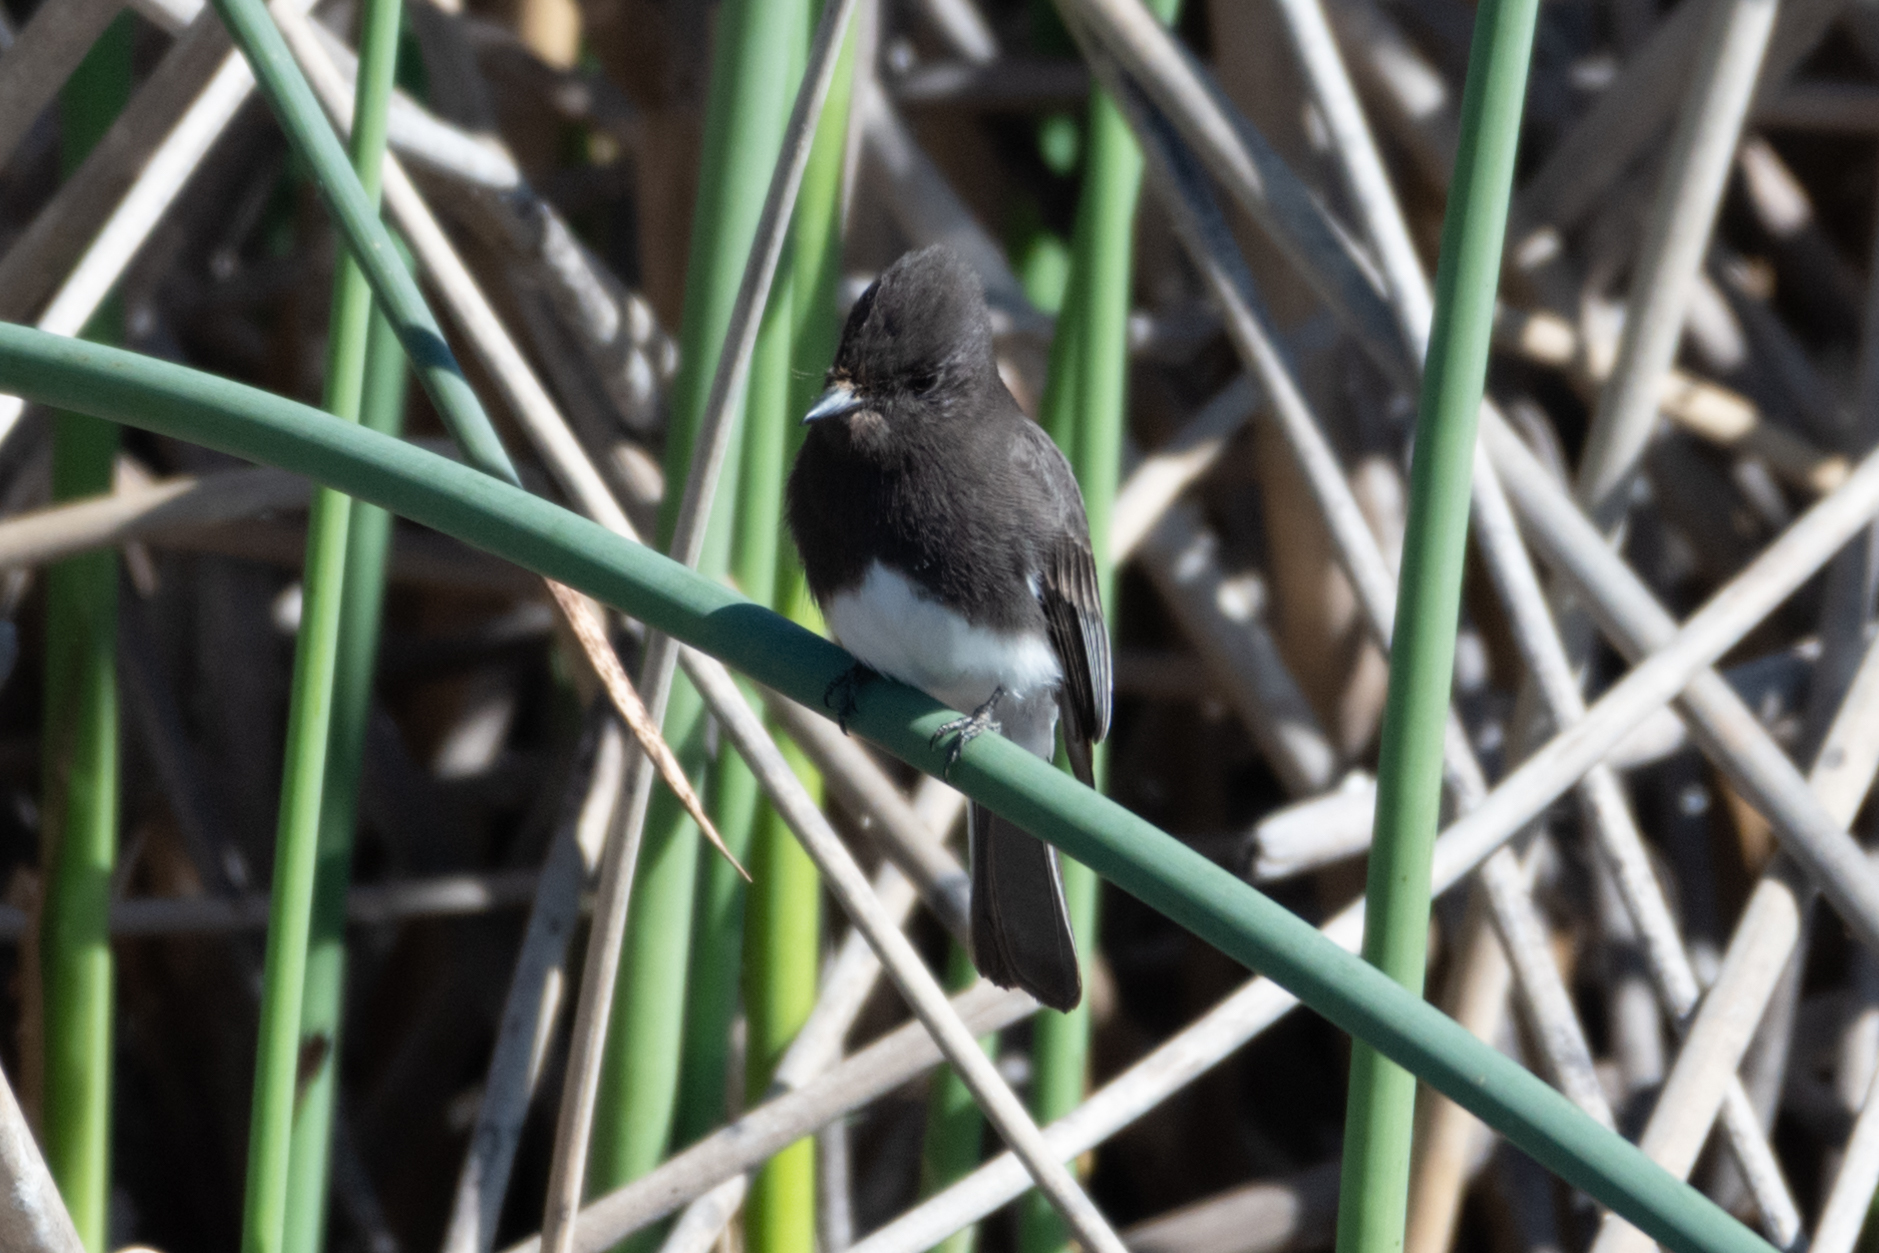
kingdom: Animalia
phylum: Chordata
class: Aves
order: Passeriformes
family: Tyrannidae
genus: Sayornis
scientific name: Sayornis nigricans
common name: Black phoebe
